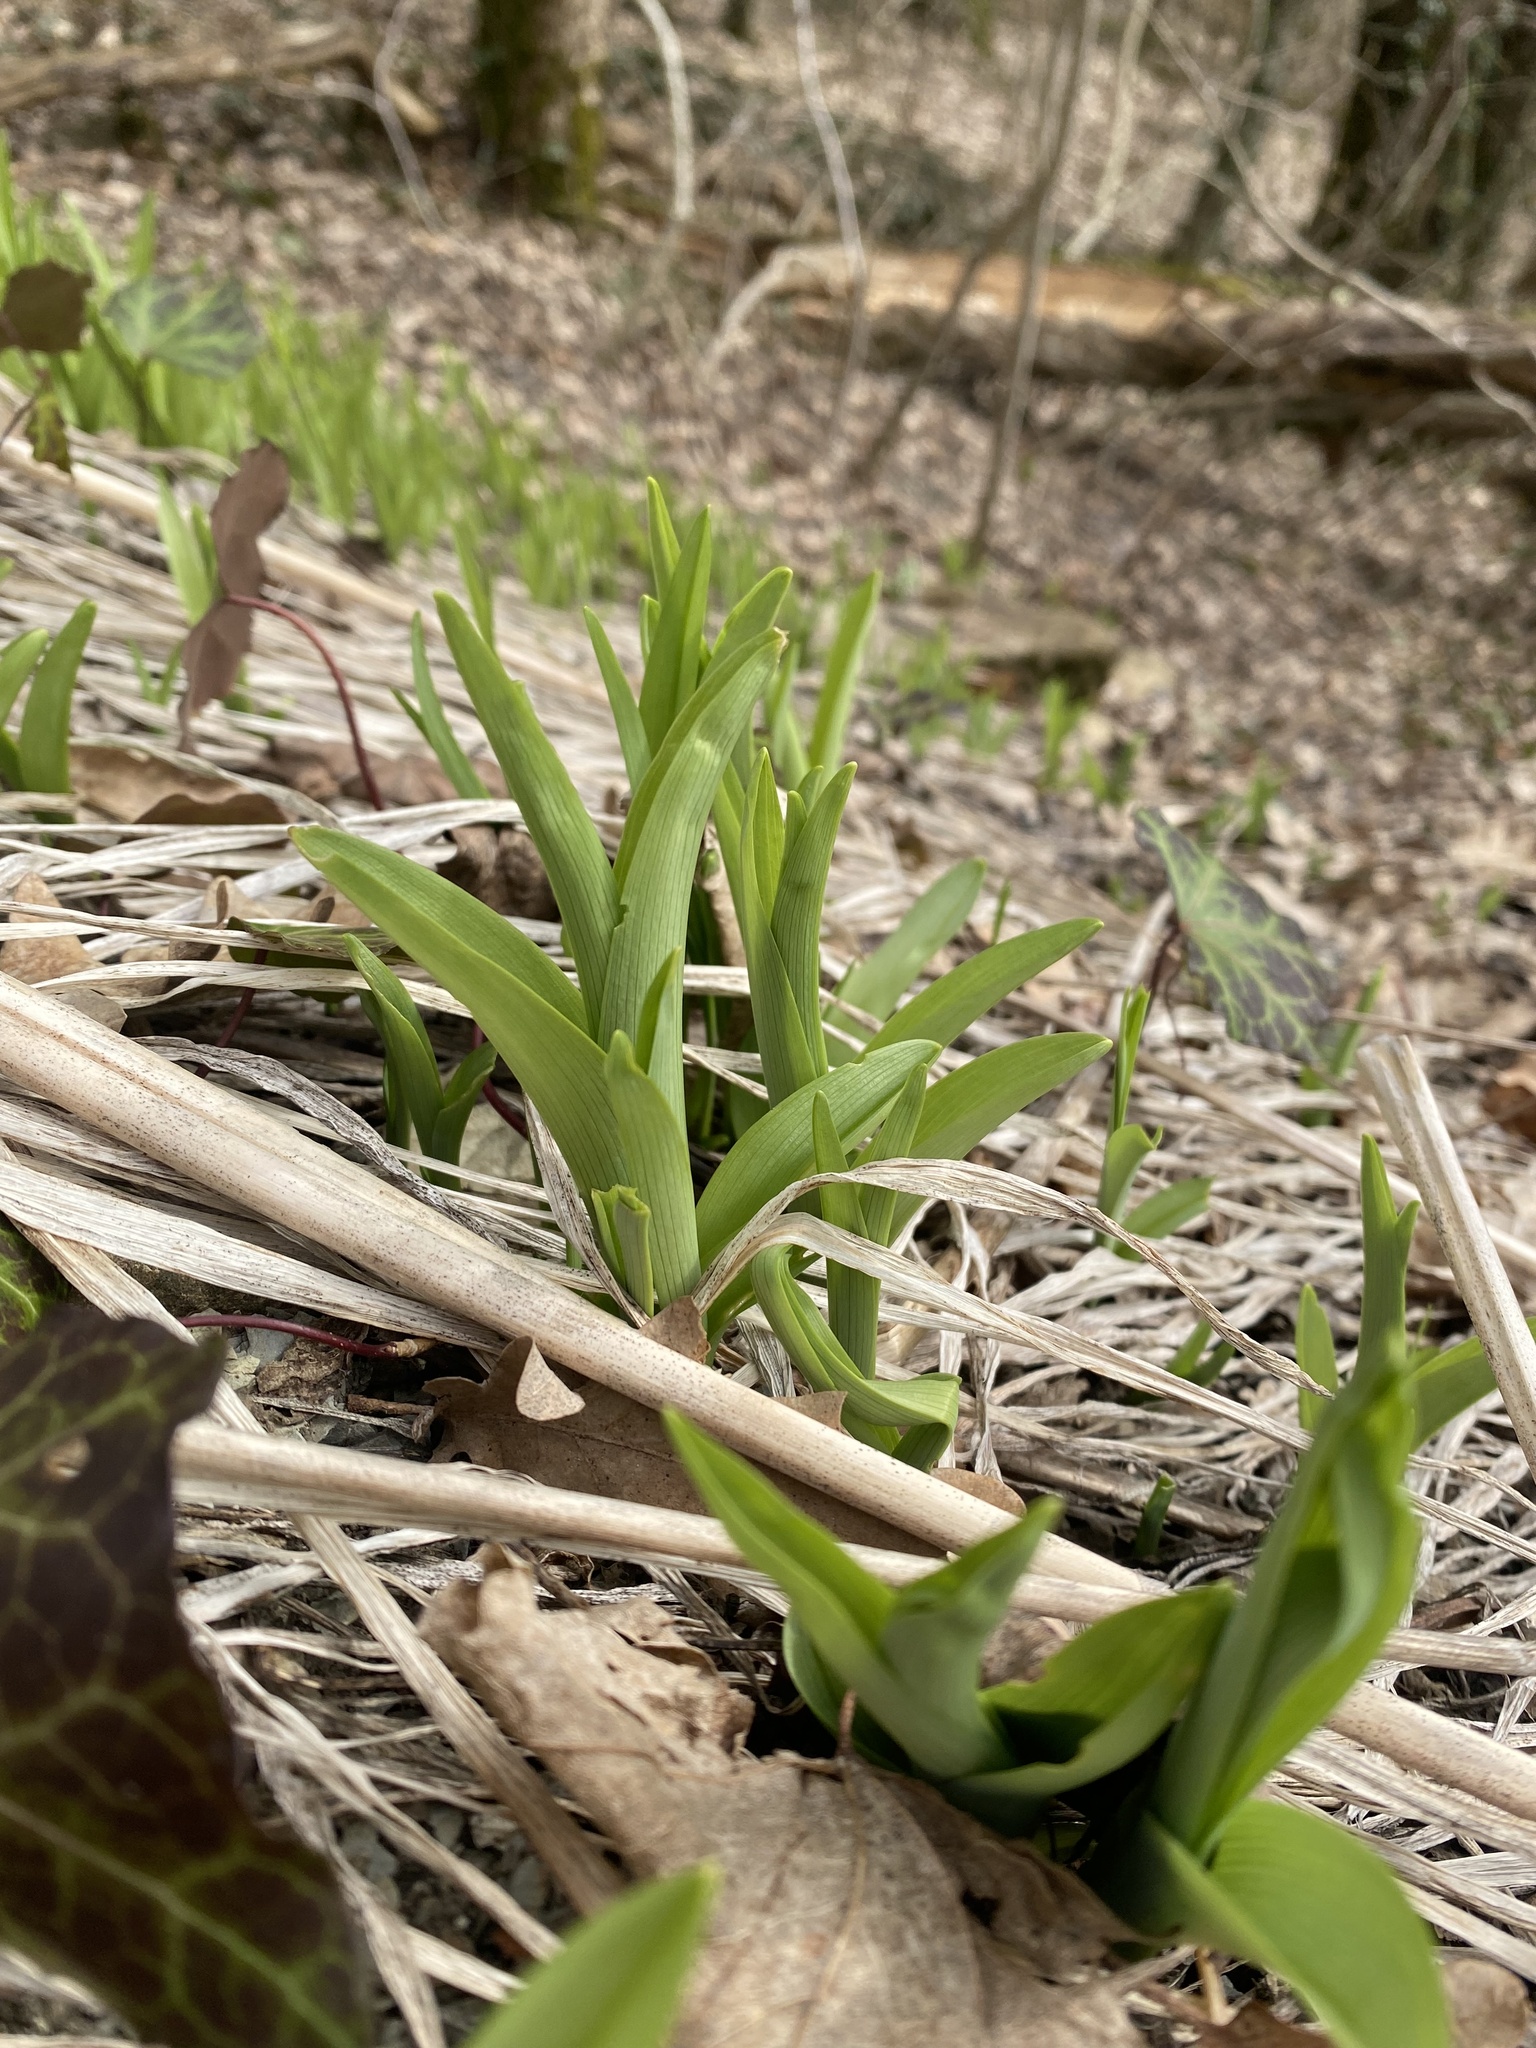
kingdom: Plantae
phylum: Tracheophyta
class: Liliopsida
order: Asparagales
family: Asphodelaceae
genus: Hemerocallis
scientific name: Hemerocallis fulva
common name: Orange day-lily
